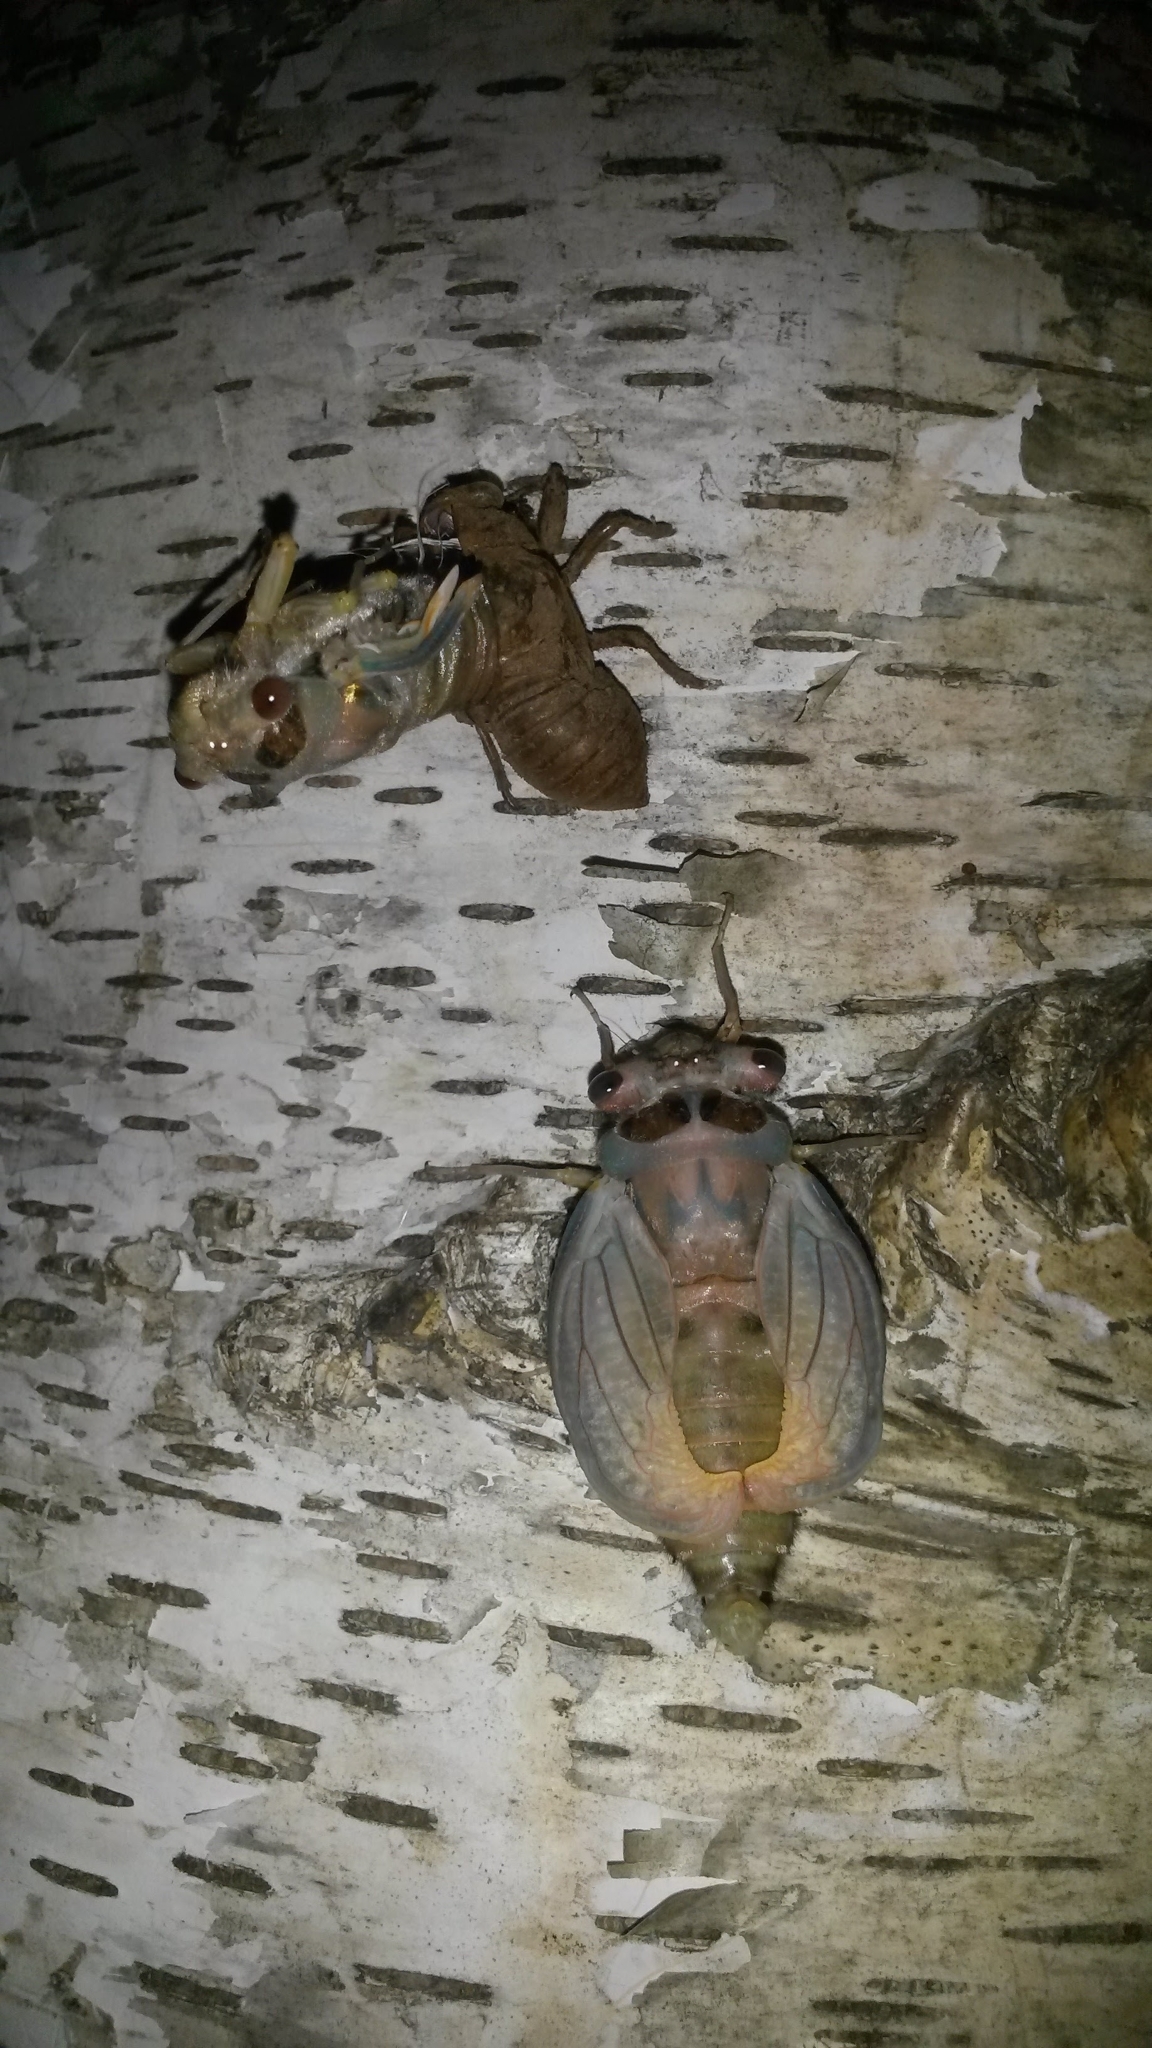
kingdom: Animalia
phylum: Arthropoda
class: Insecta
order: Hemiptera
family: Cicadidae
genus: Psaltoda
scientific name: Psaltoda plaga
